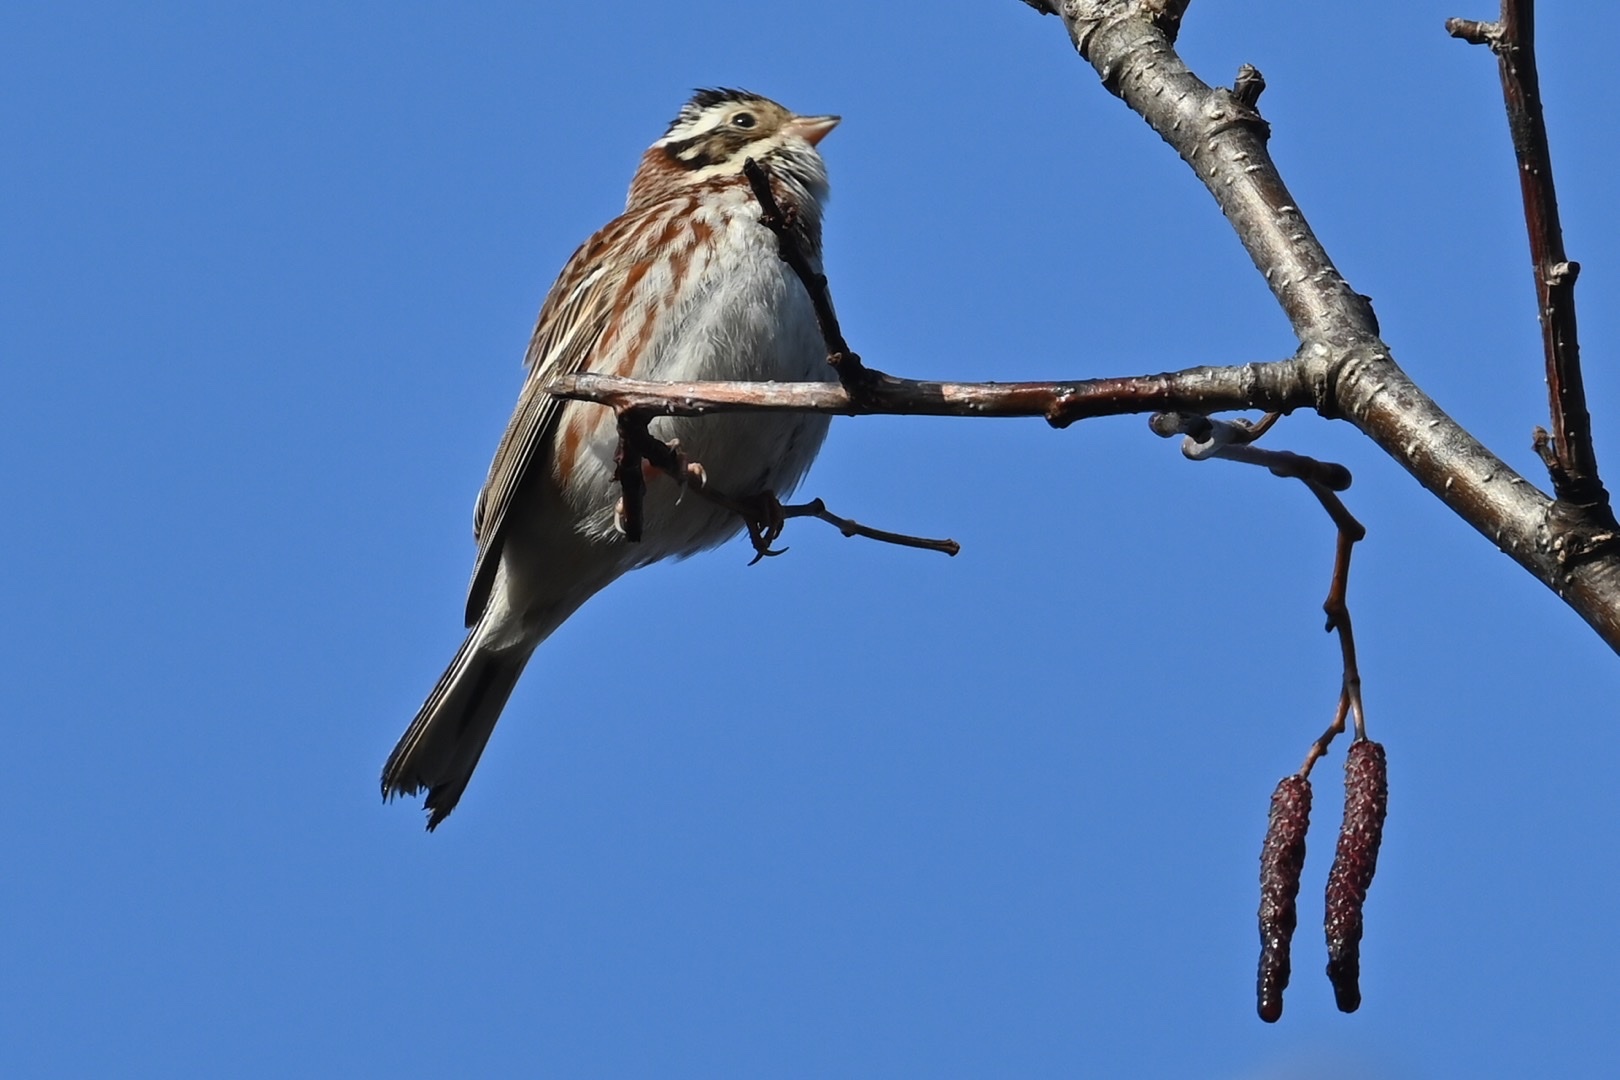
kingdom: Animalia
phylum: Chordata
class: Aves
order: Passeriformes
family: Emberizidae
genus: Emberiza
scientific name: Emberiza rustica
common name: Rustic bunting
